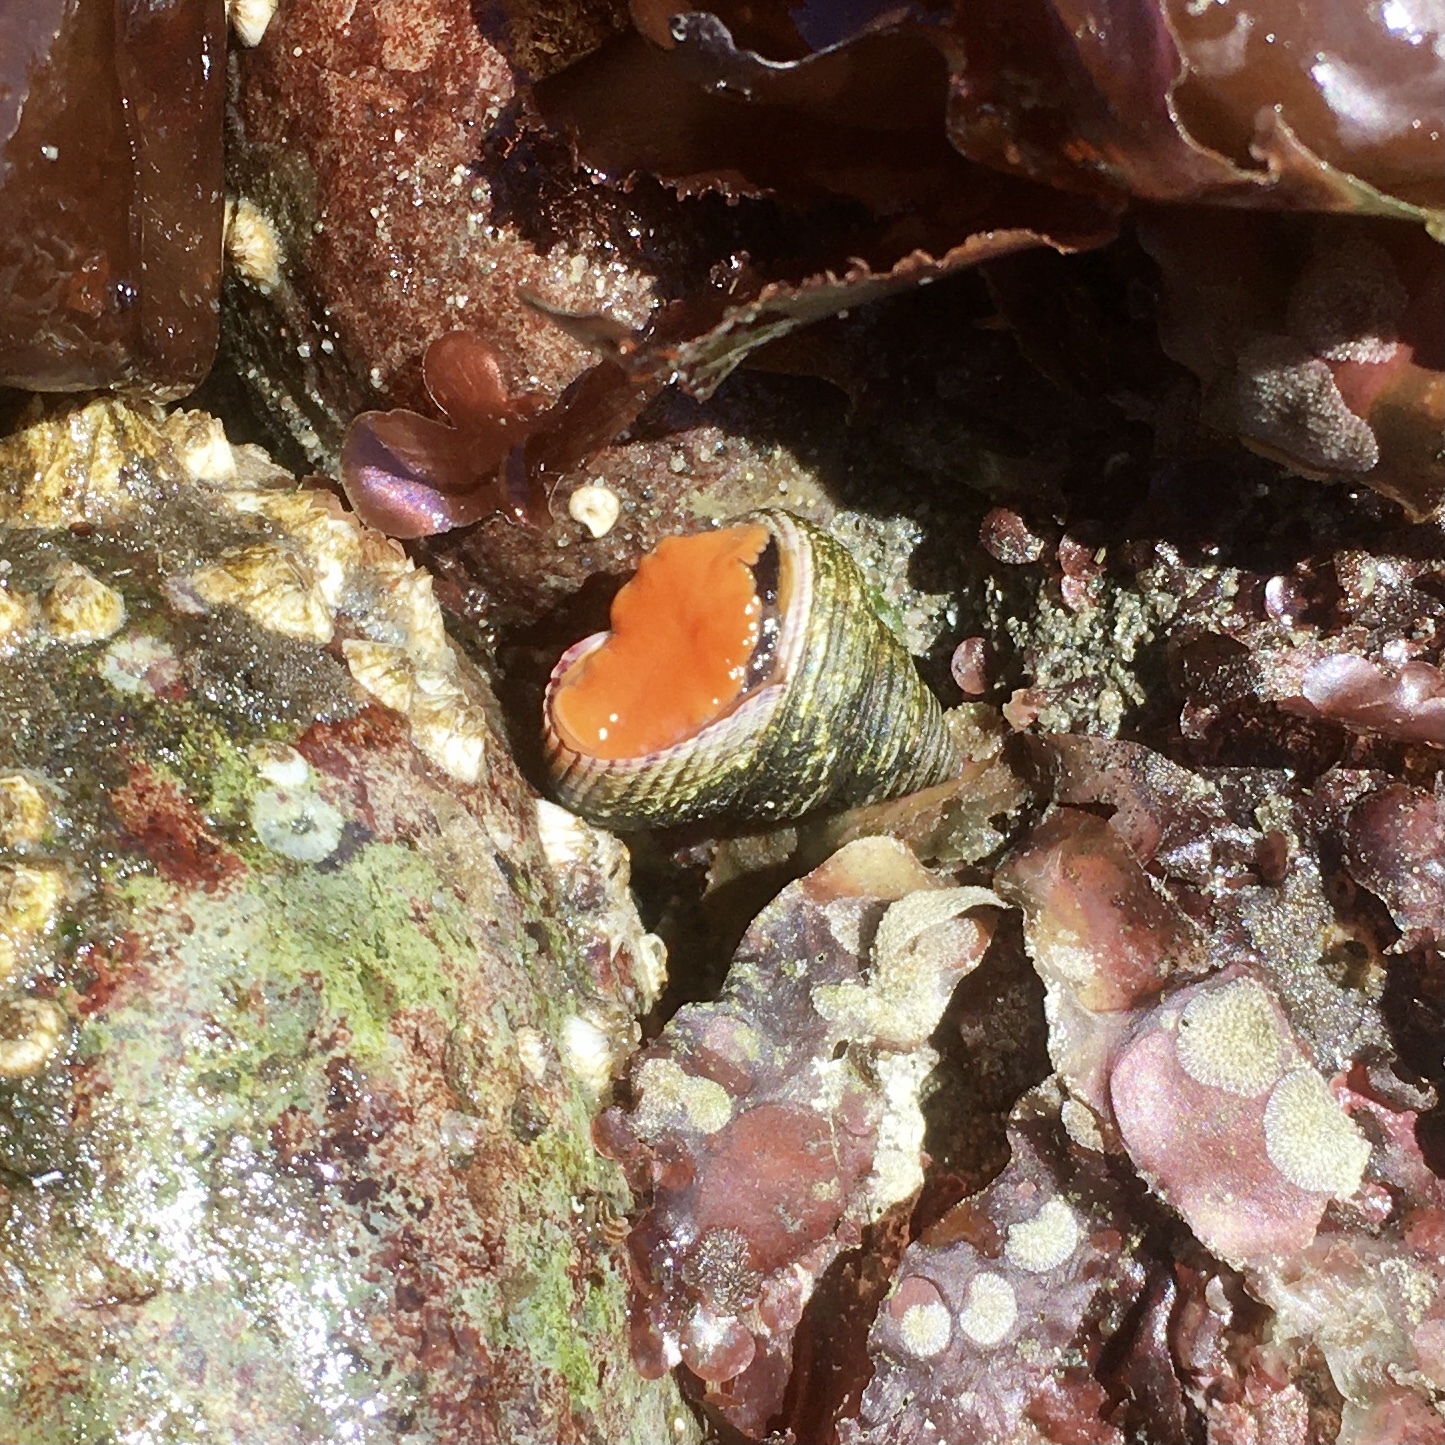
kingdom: Animalia
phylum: Mollusca
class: Gastropoda
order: Trochida
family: Calliostomatidae
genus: Calliostoma
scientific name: Calliostoma ligatum
